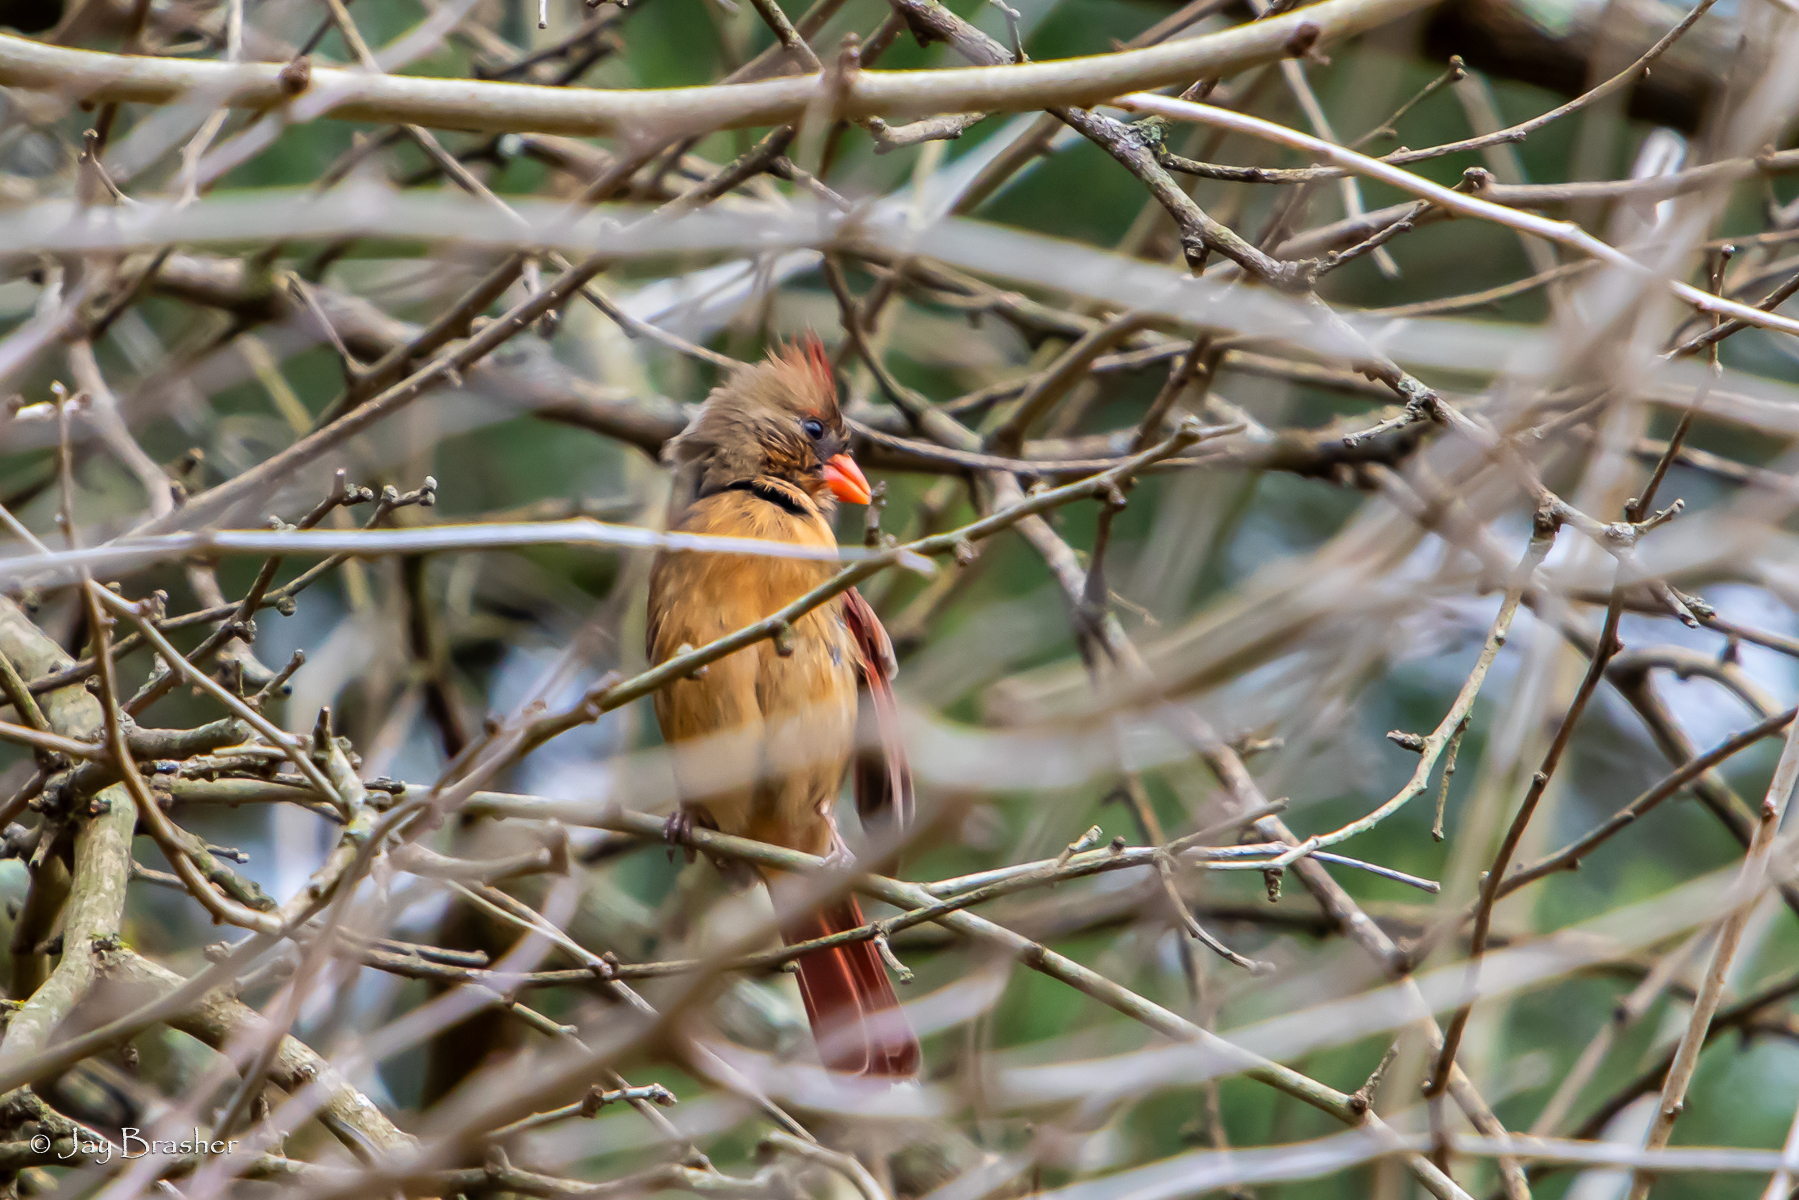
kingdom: Animalia
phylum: Chordata
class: Aves
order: Passeriformes
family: Cardinalidae
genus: Cardinalis
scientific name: Cardinalis cardinalis
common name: Northern cardinal
